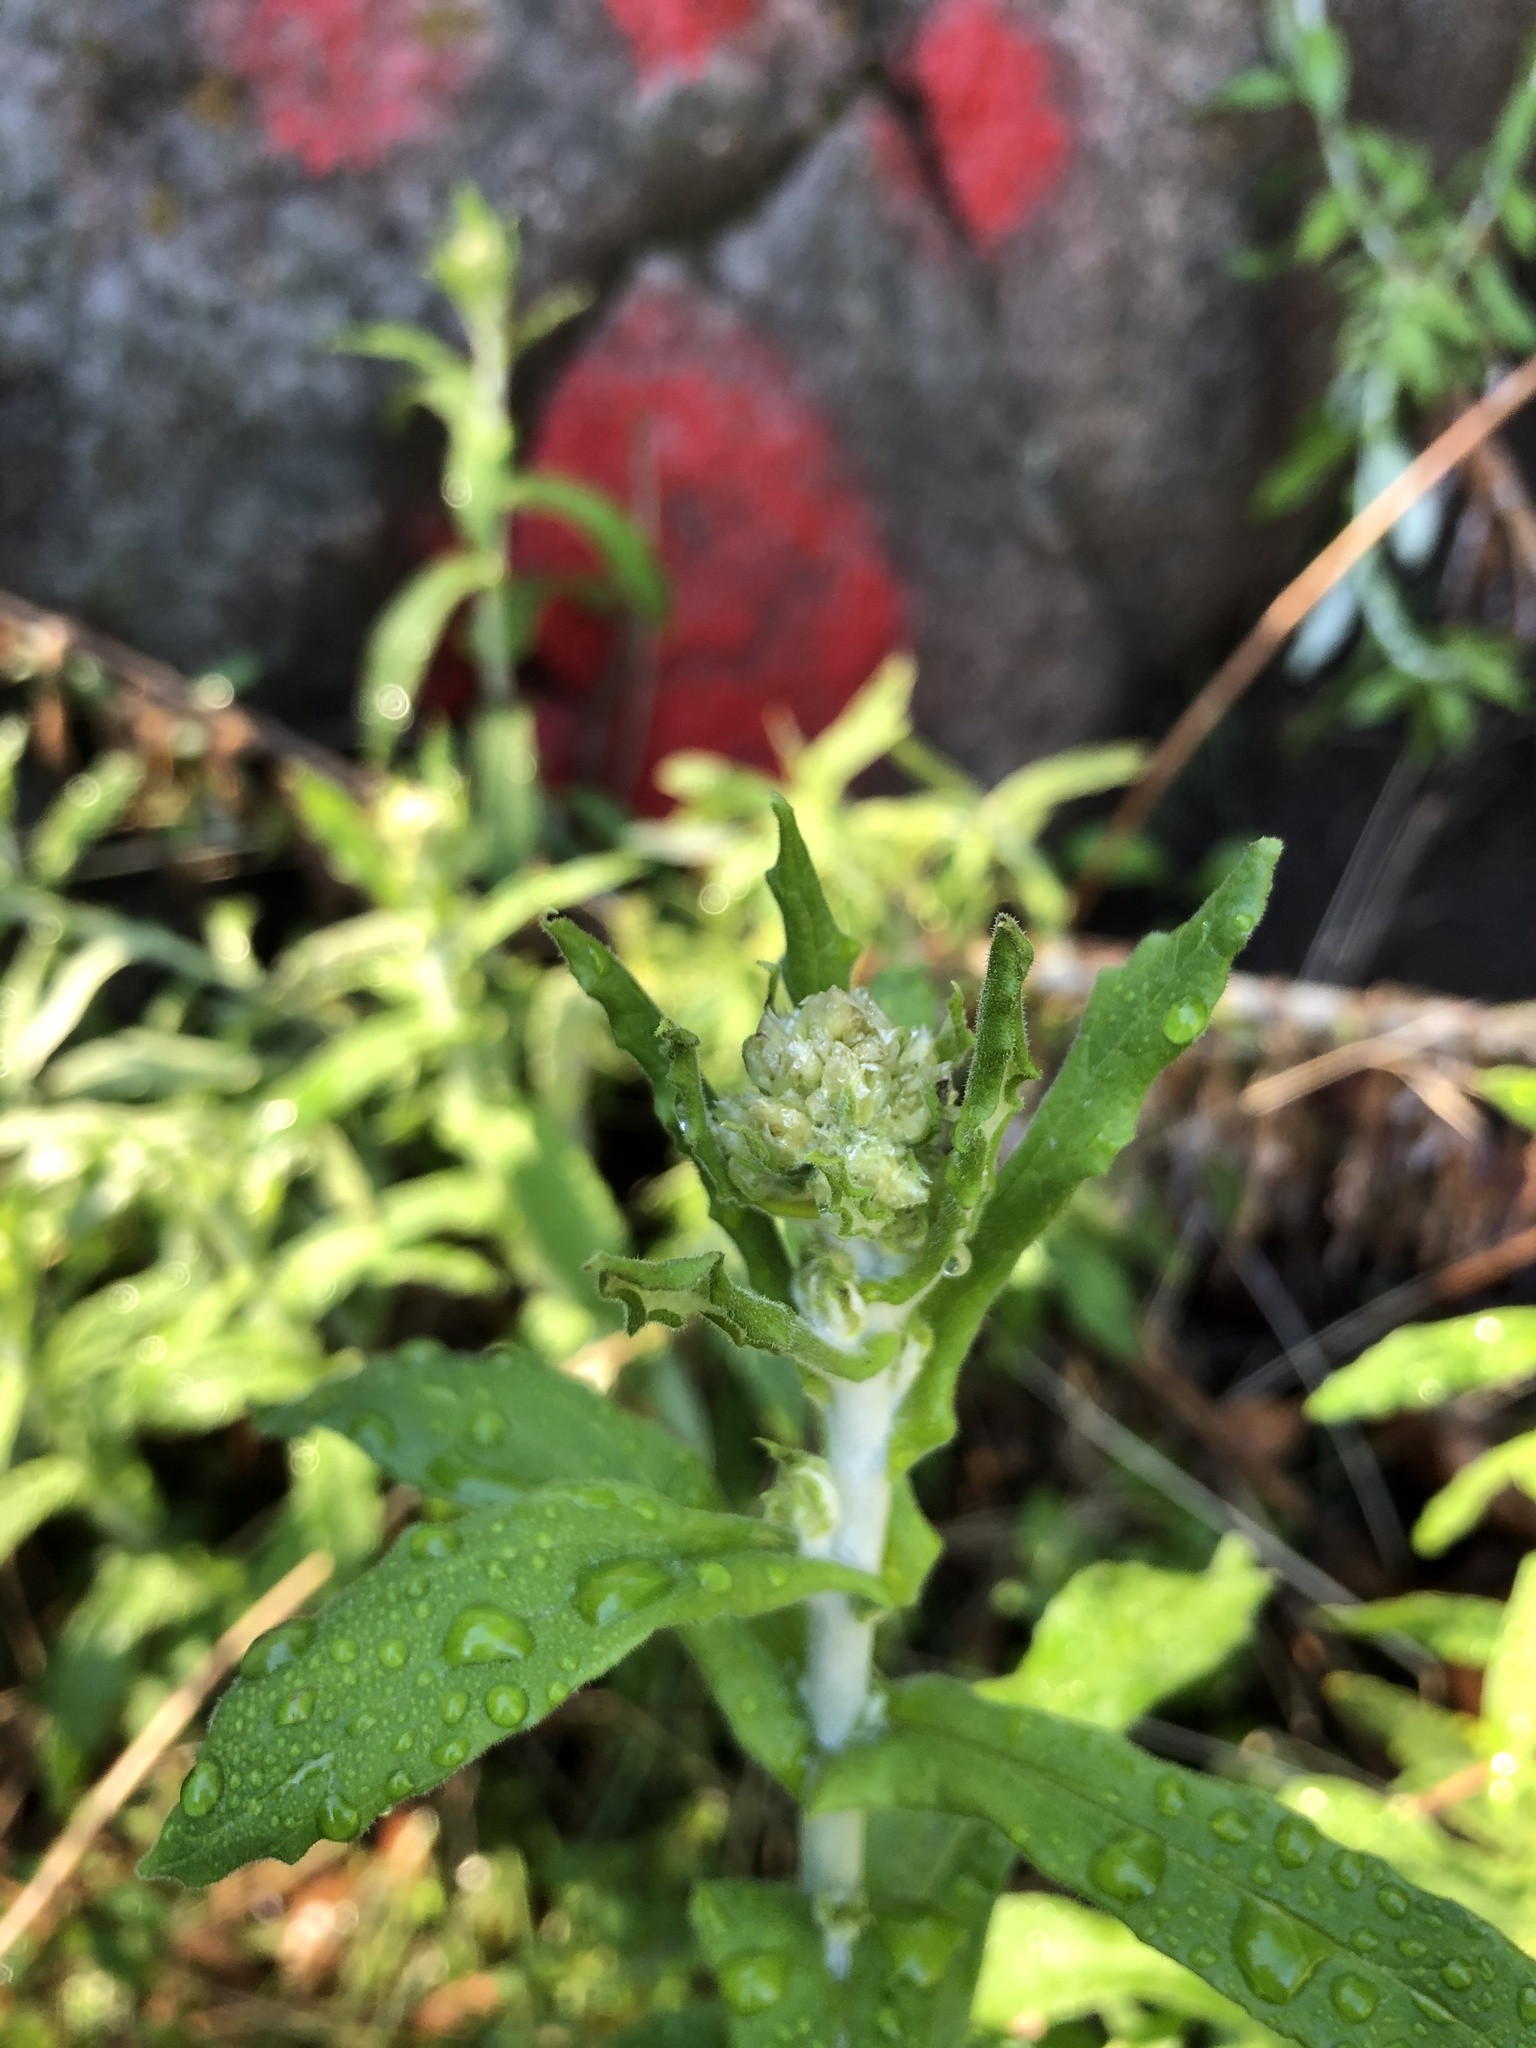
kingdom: Plantae
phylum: Tracheophyta
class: Magnoliopsida
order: Asterales
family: Asteraceae
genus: Pseudognaphalium
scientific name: Pseudognaphalium biolettii
